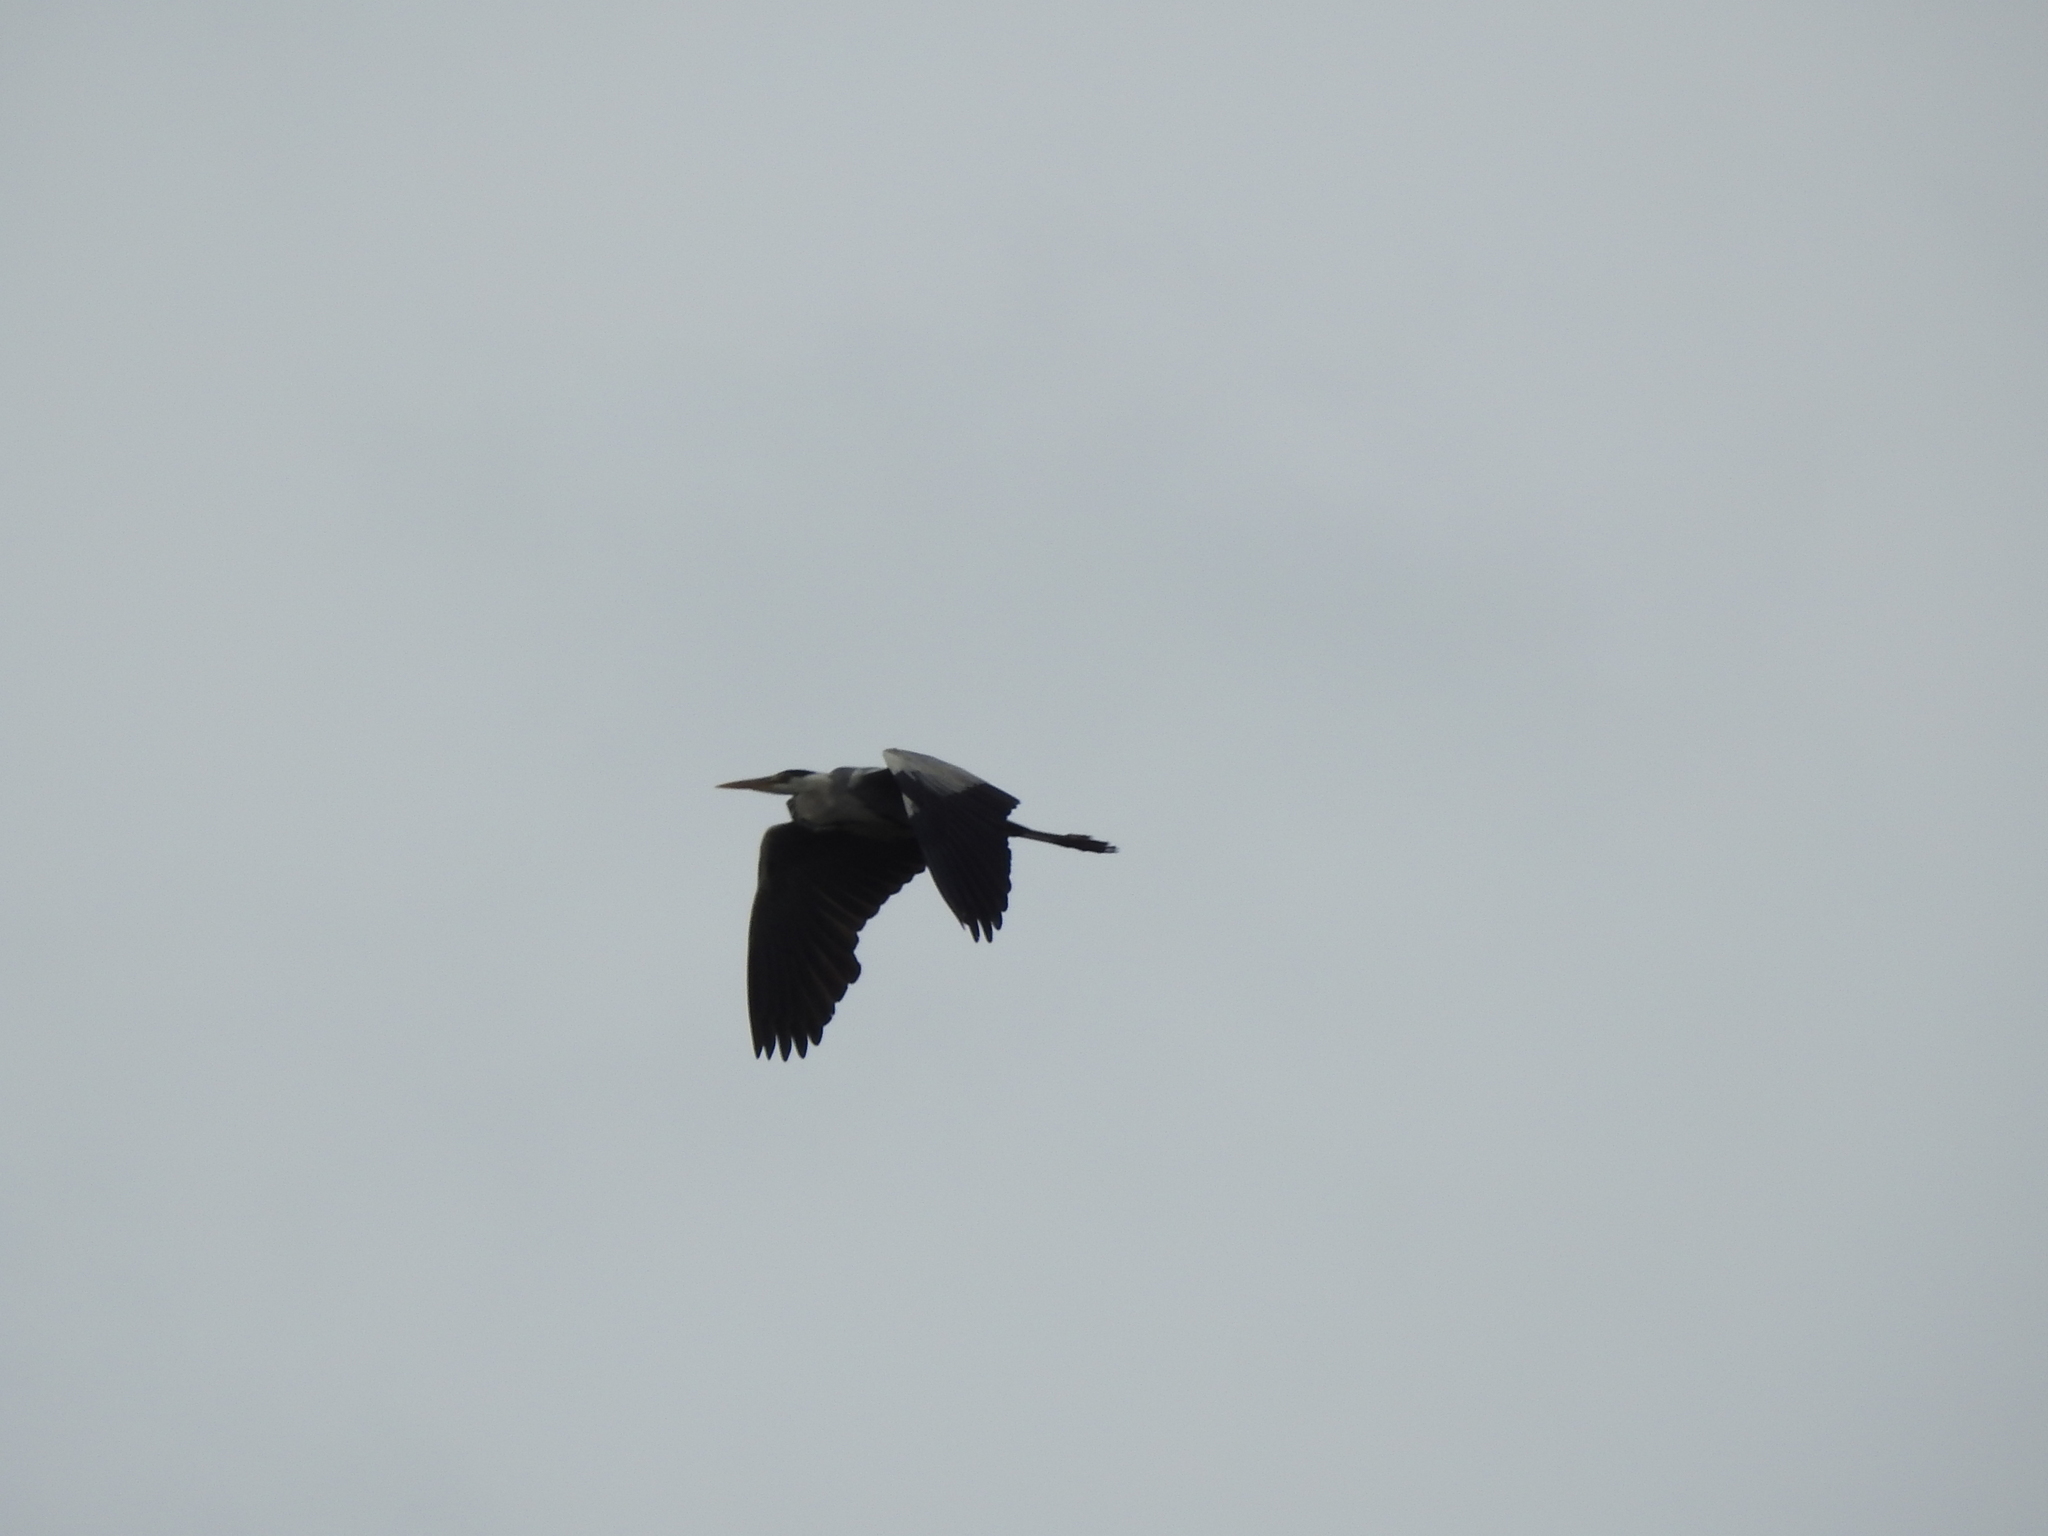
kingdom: Animalia
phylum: Chordata
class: Aves
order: Pelecaniformes
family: Ardeidae
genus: Ardea
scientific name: Ardea cinerea
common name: Grey heron
